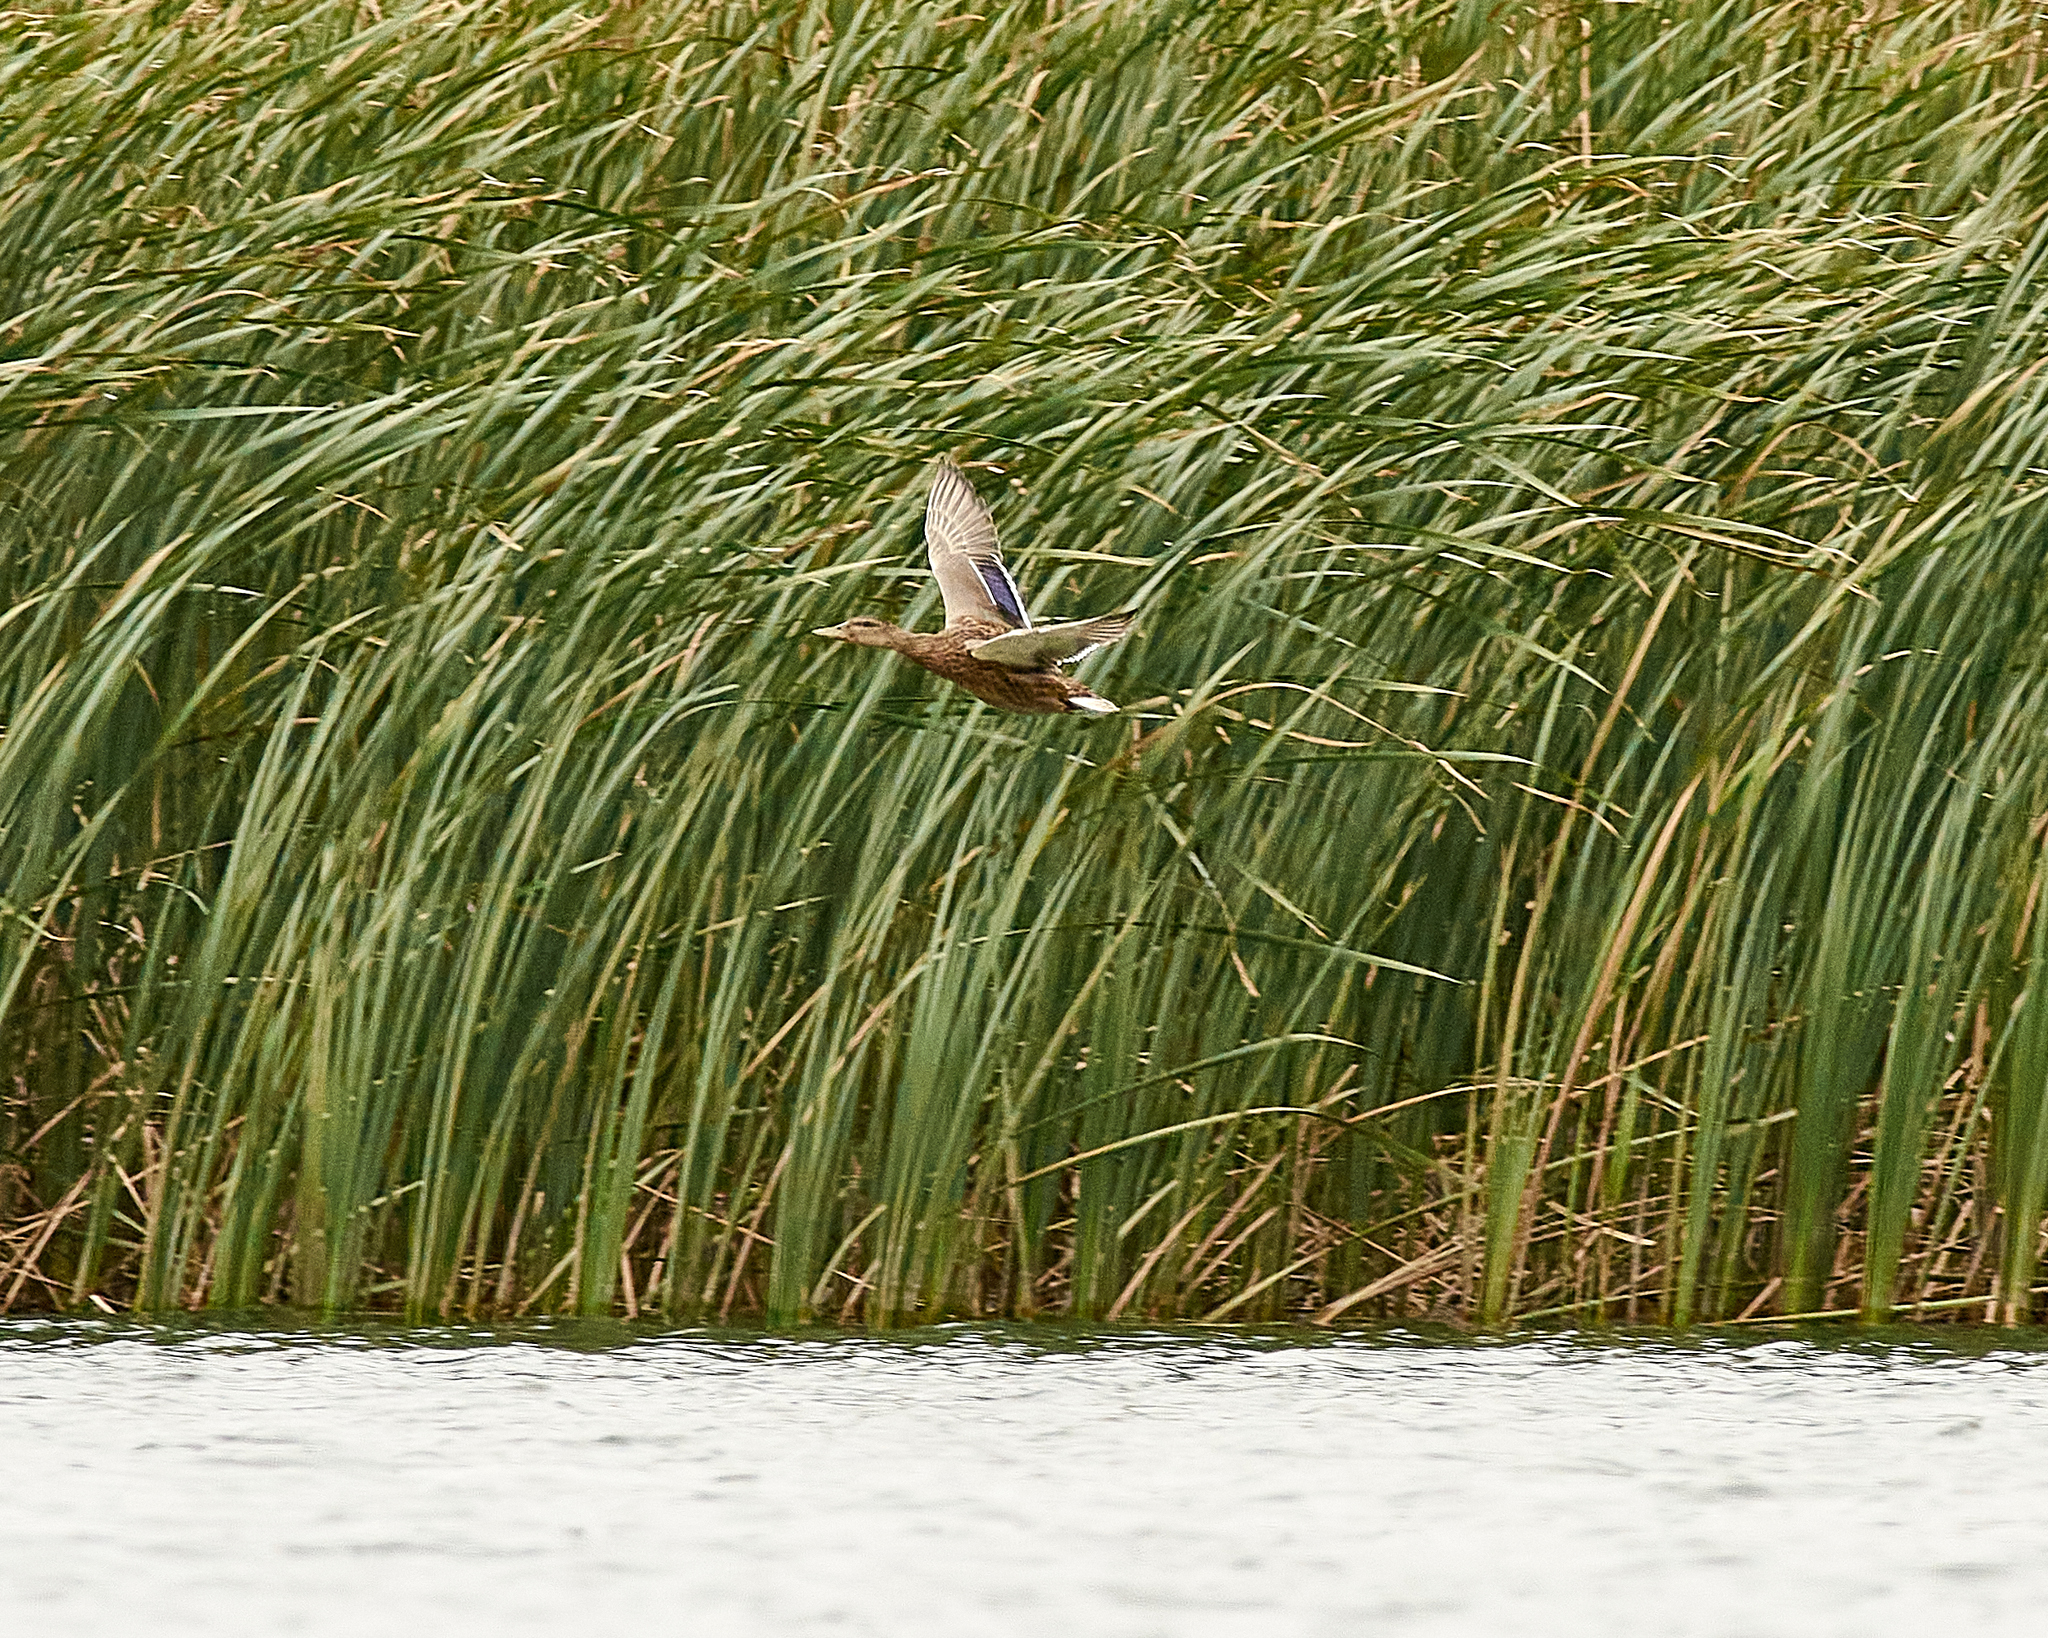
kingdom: Animalia
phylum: Chordata
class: Aves
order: Anseriformes
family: Anatidae
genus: Anas
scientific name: Anas platyrhynchos
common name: Mallard
